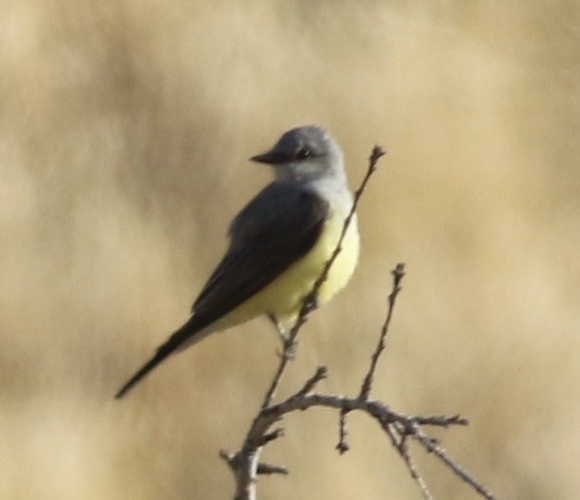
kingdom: Animalia
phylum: Chordata
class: Aves
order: Passeriformes
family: Tyrannidae
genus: Tyrannus
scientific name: Tyrannus verticalis
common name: Western kingbird
